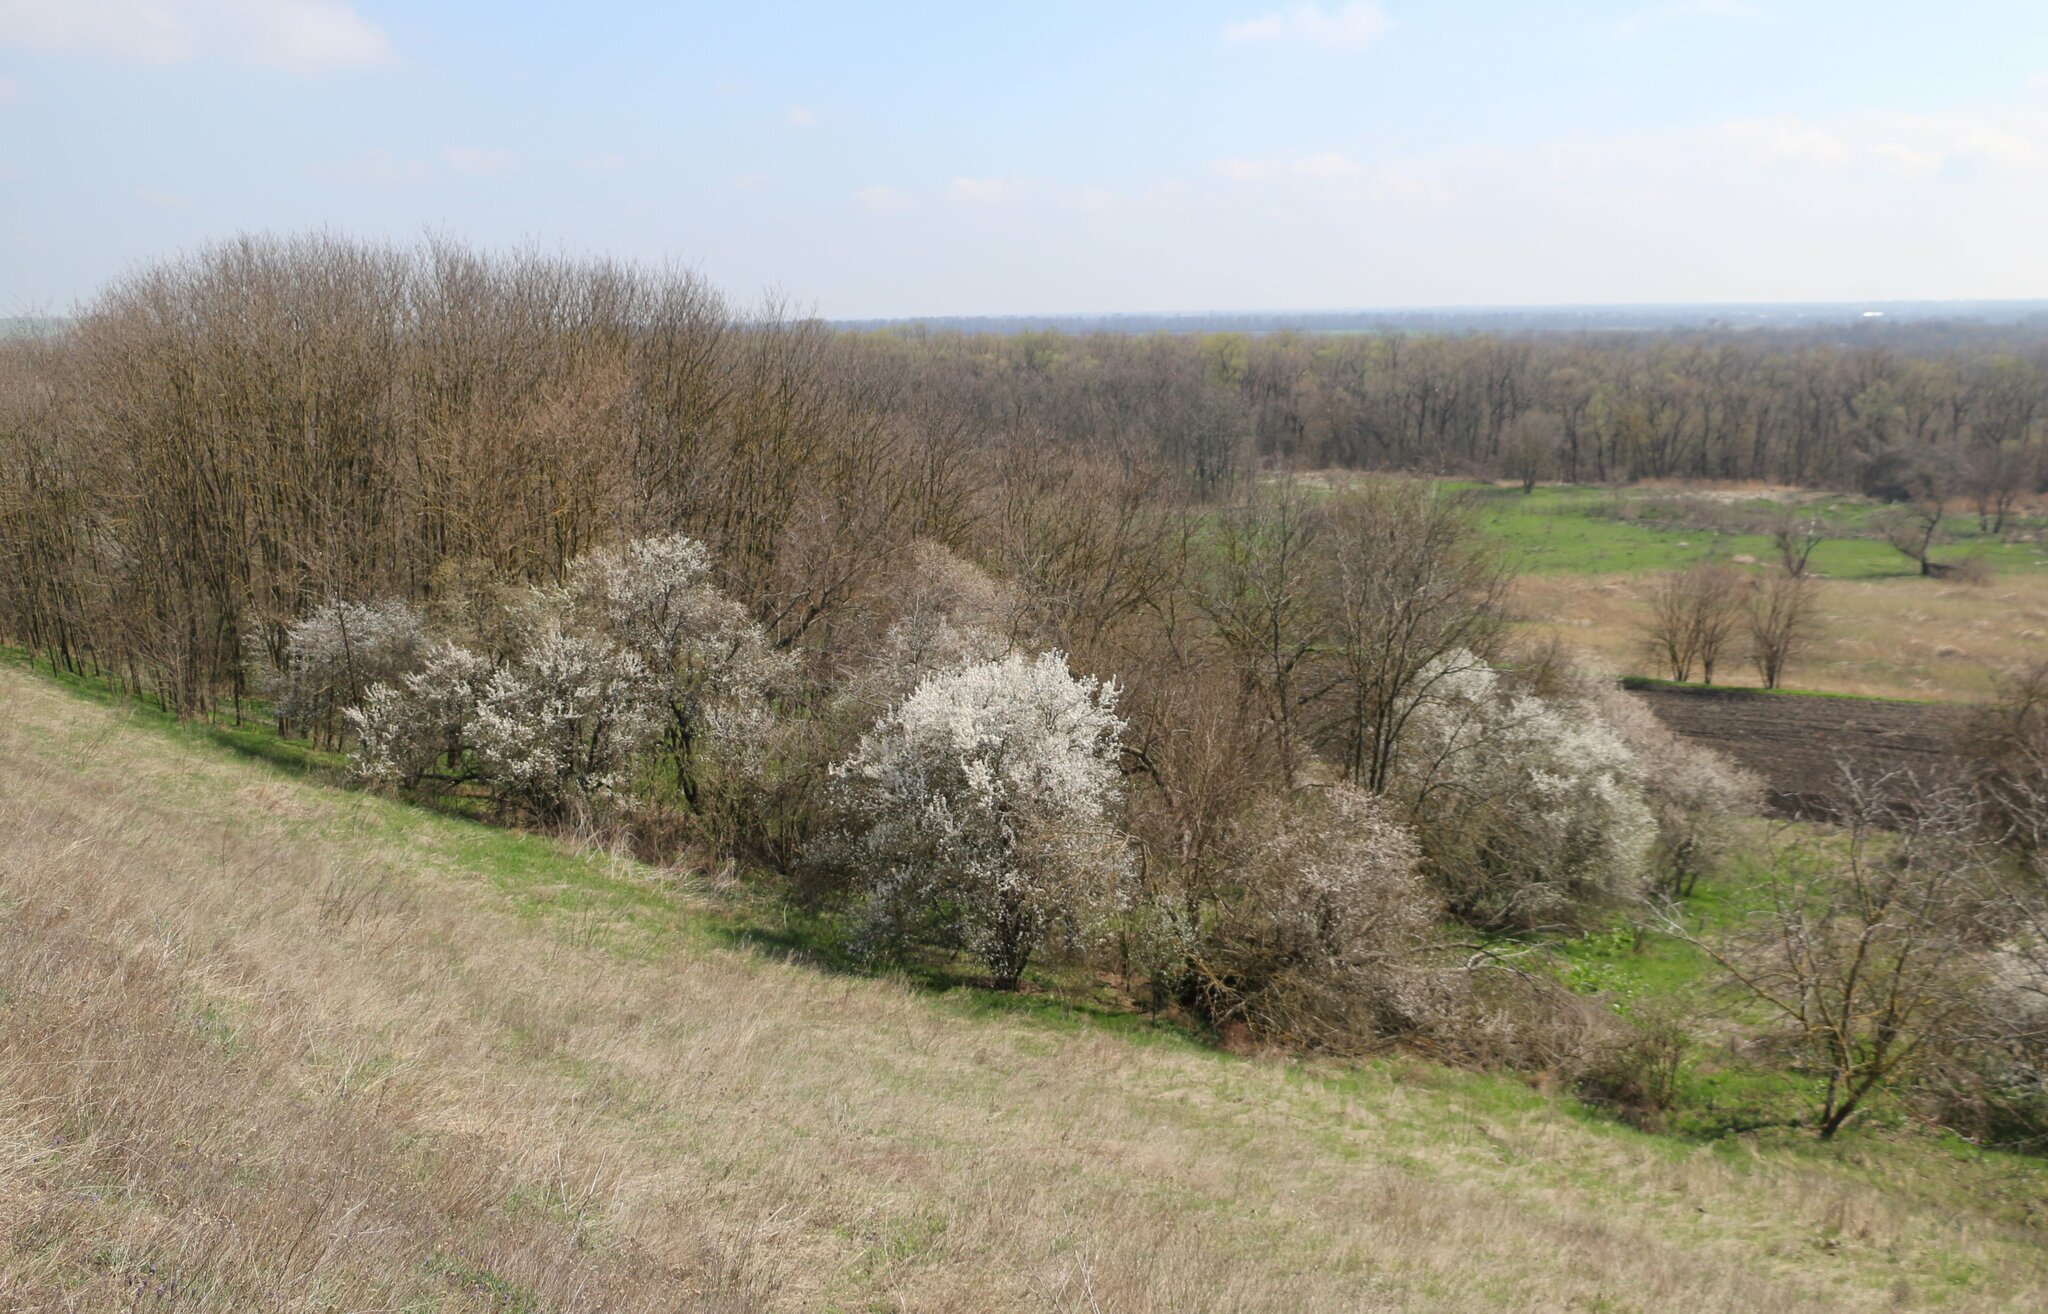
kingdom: Plantae
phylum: Tracheophyta
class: Magnoliopsida
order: Rosales
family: Rosaceae
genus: Prunus
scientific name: Prunus cerasifera
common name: Cherry plum
